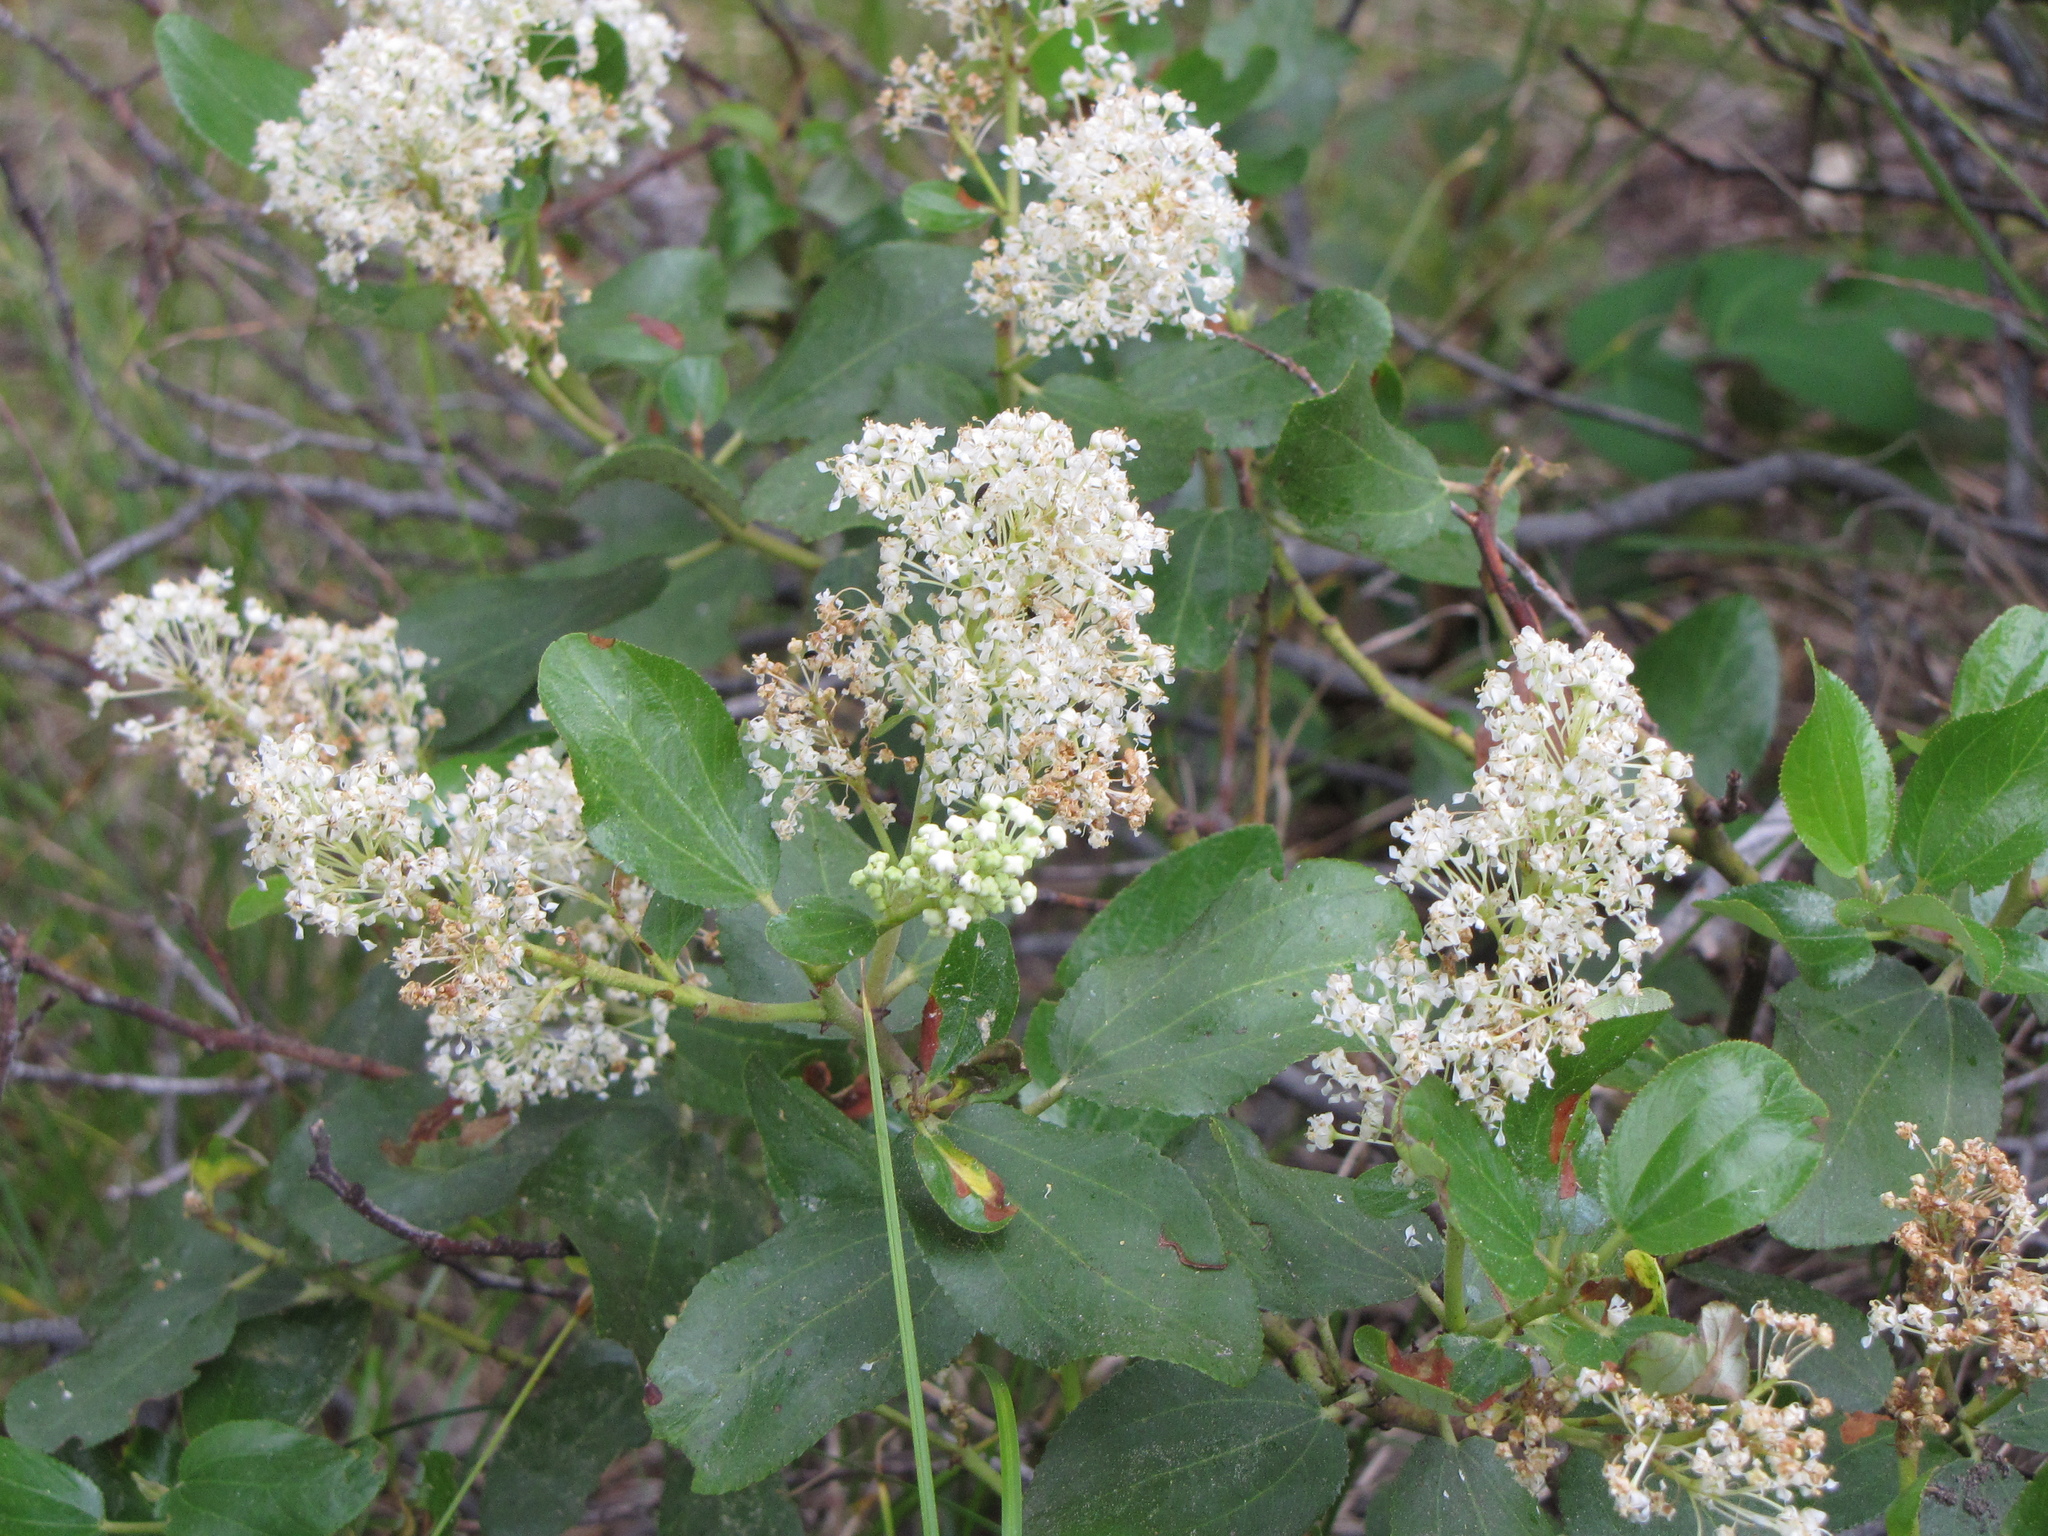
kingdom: Plantae
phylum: Tracheophyta
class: Magnoliopsida
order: Rosales
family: Rhamnaceae
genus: Ceanothus
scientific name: Ceanothus velutinus
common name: Snowbrush
